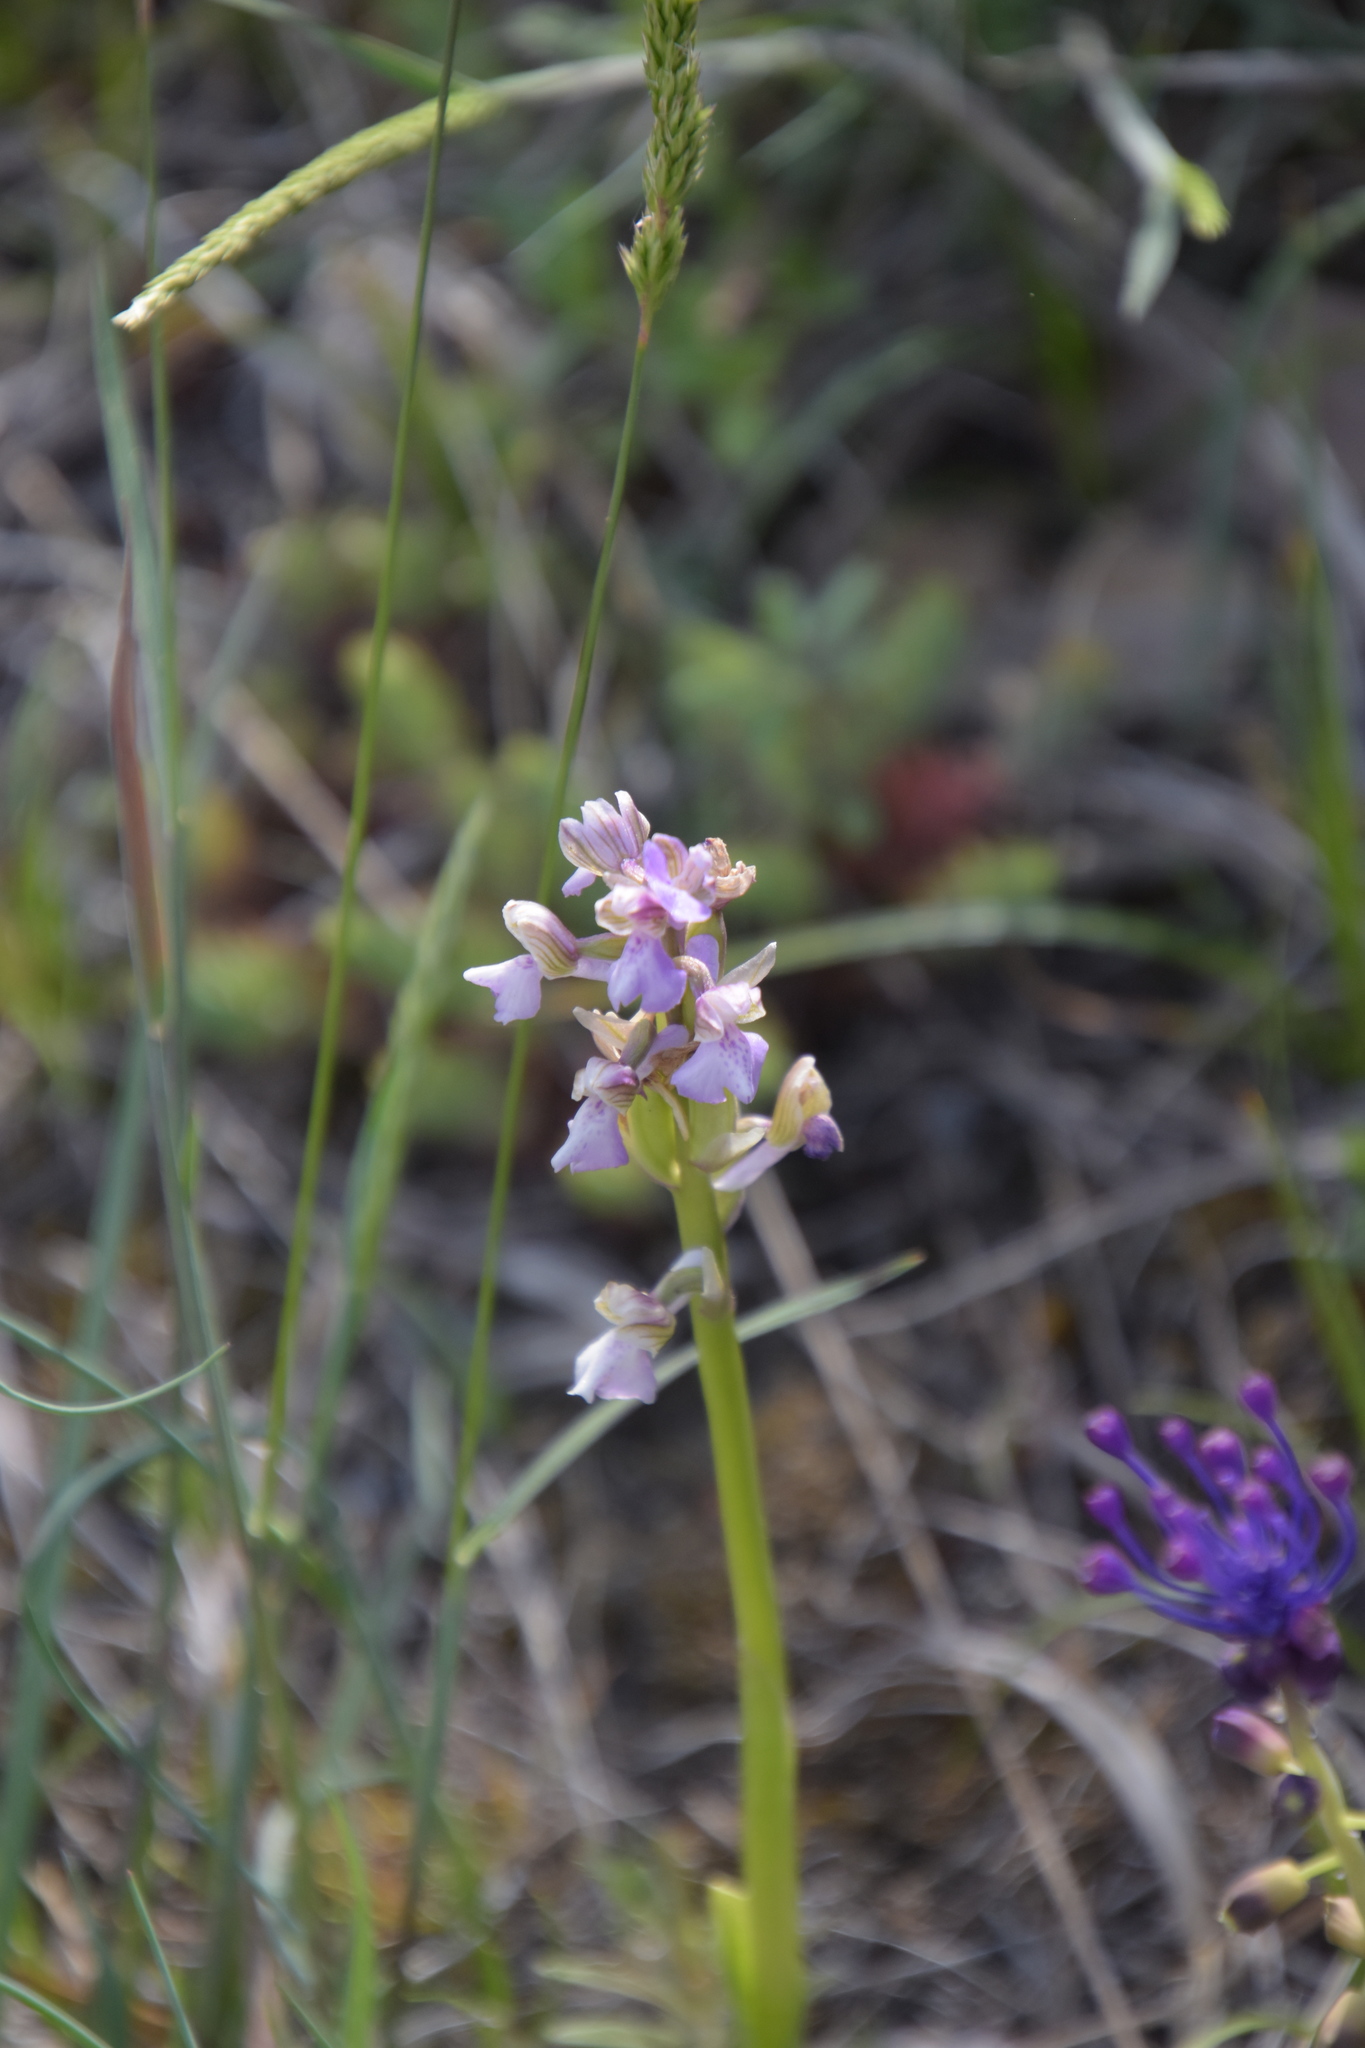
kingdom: Plantae
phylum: Tracheophyta
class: Liliopsida
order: Asparagales
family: Orchidaceae
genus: Anacamptis
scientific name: Anacamptis morio
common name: Green-winged orchid
